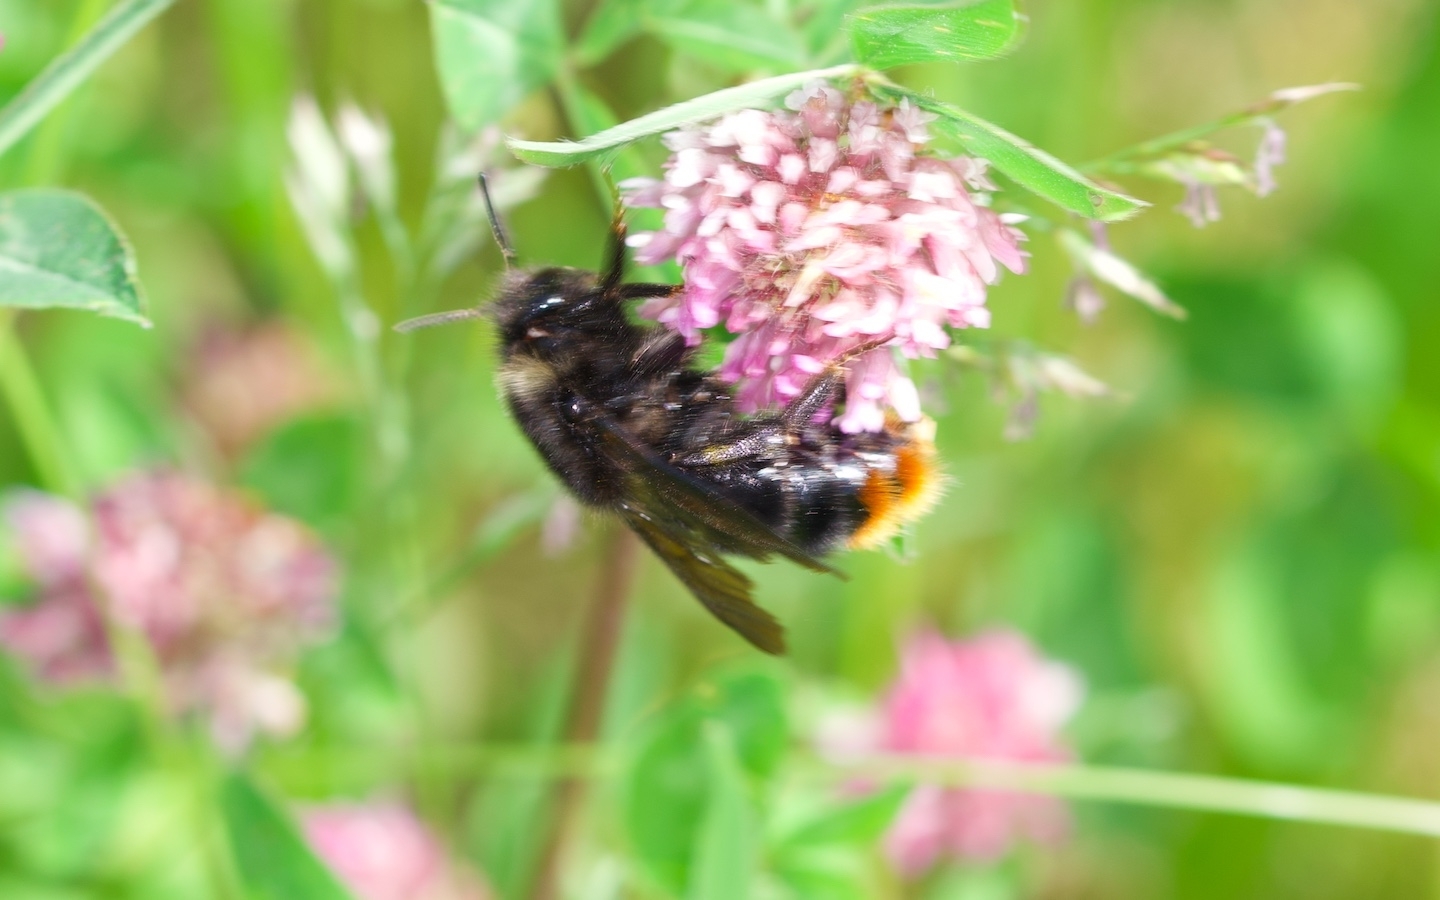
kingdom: Animalia
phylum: Arthropoda
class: Insecta
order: Hymenoptera
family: Apidae
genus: Bombus
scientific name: Bombus rupestris
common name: Hill cuckoo-bee
